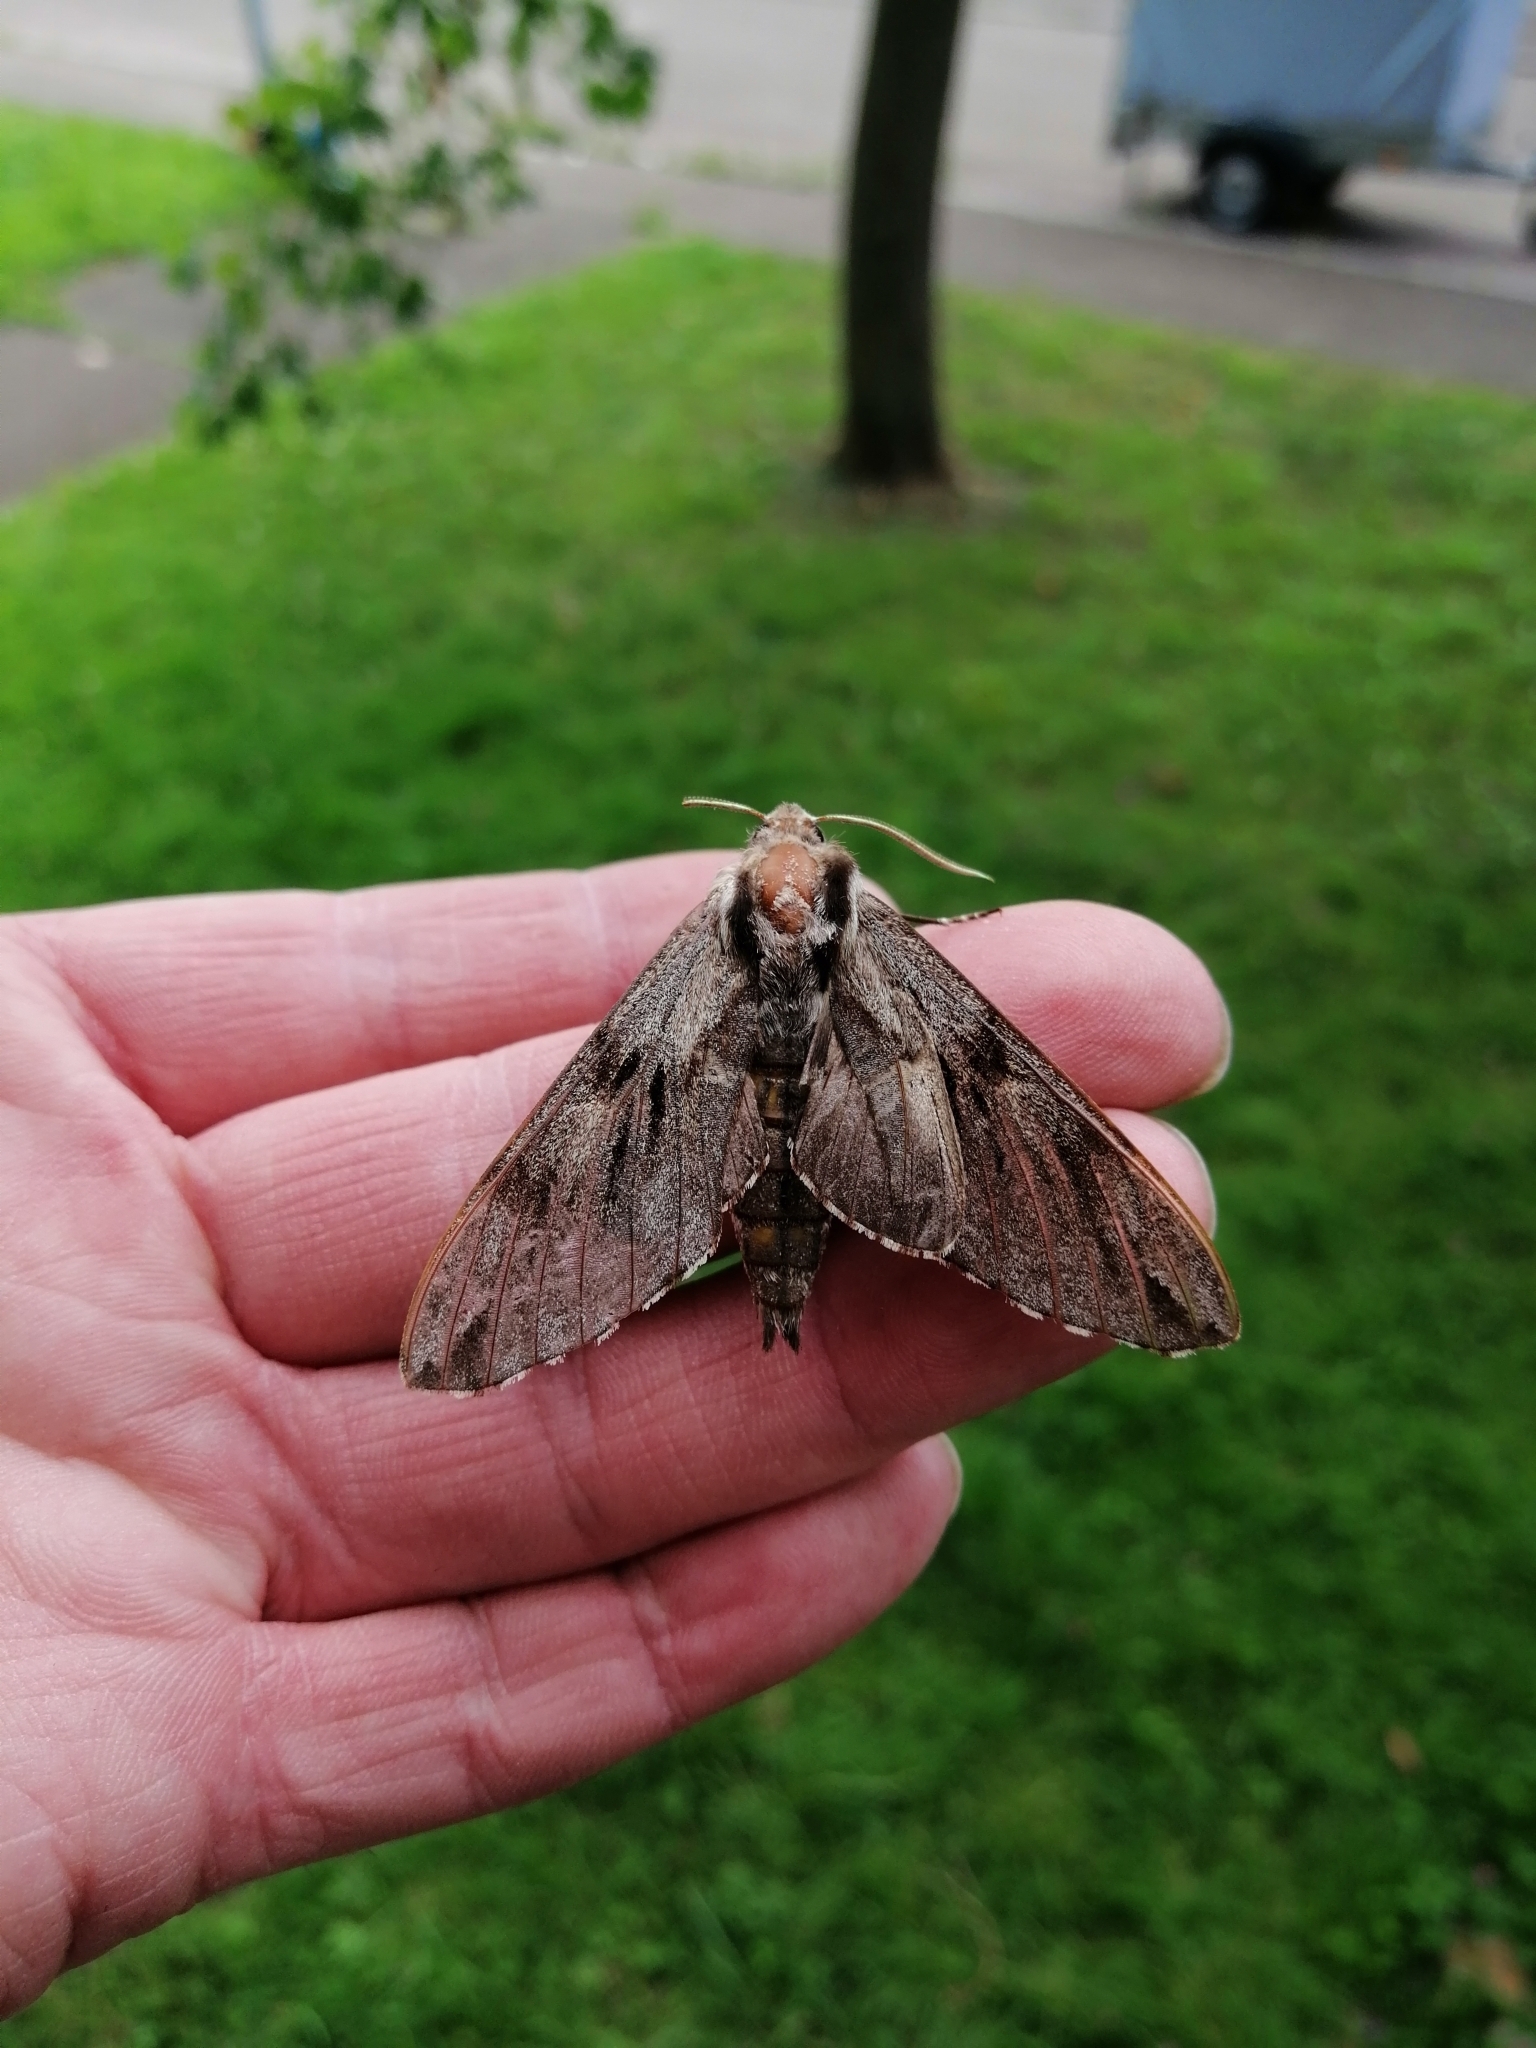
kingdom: Animalia
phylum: Arthropoda
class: Insecta
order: Lepidoptera
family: Sphingidae
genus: Sphinx
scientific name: Sphinx pinastri
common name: Pine hawk-moth
